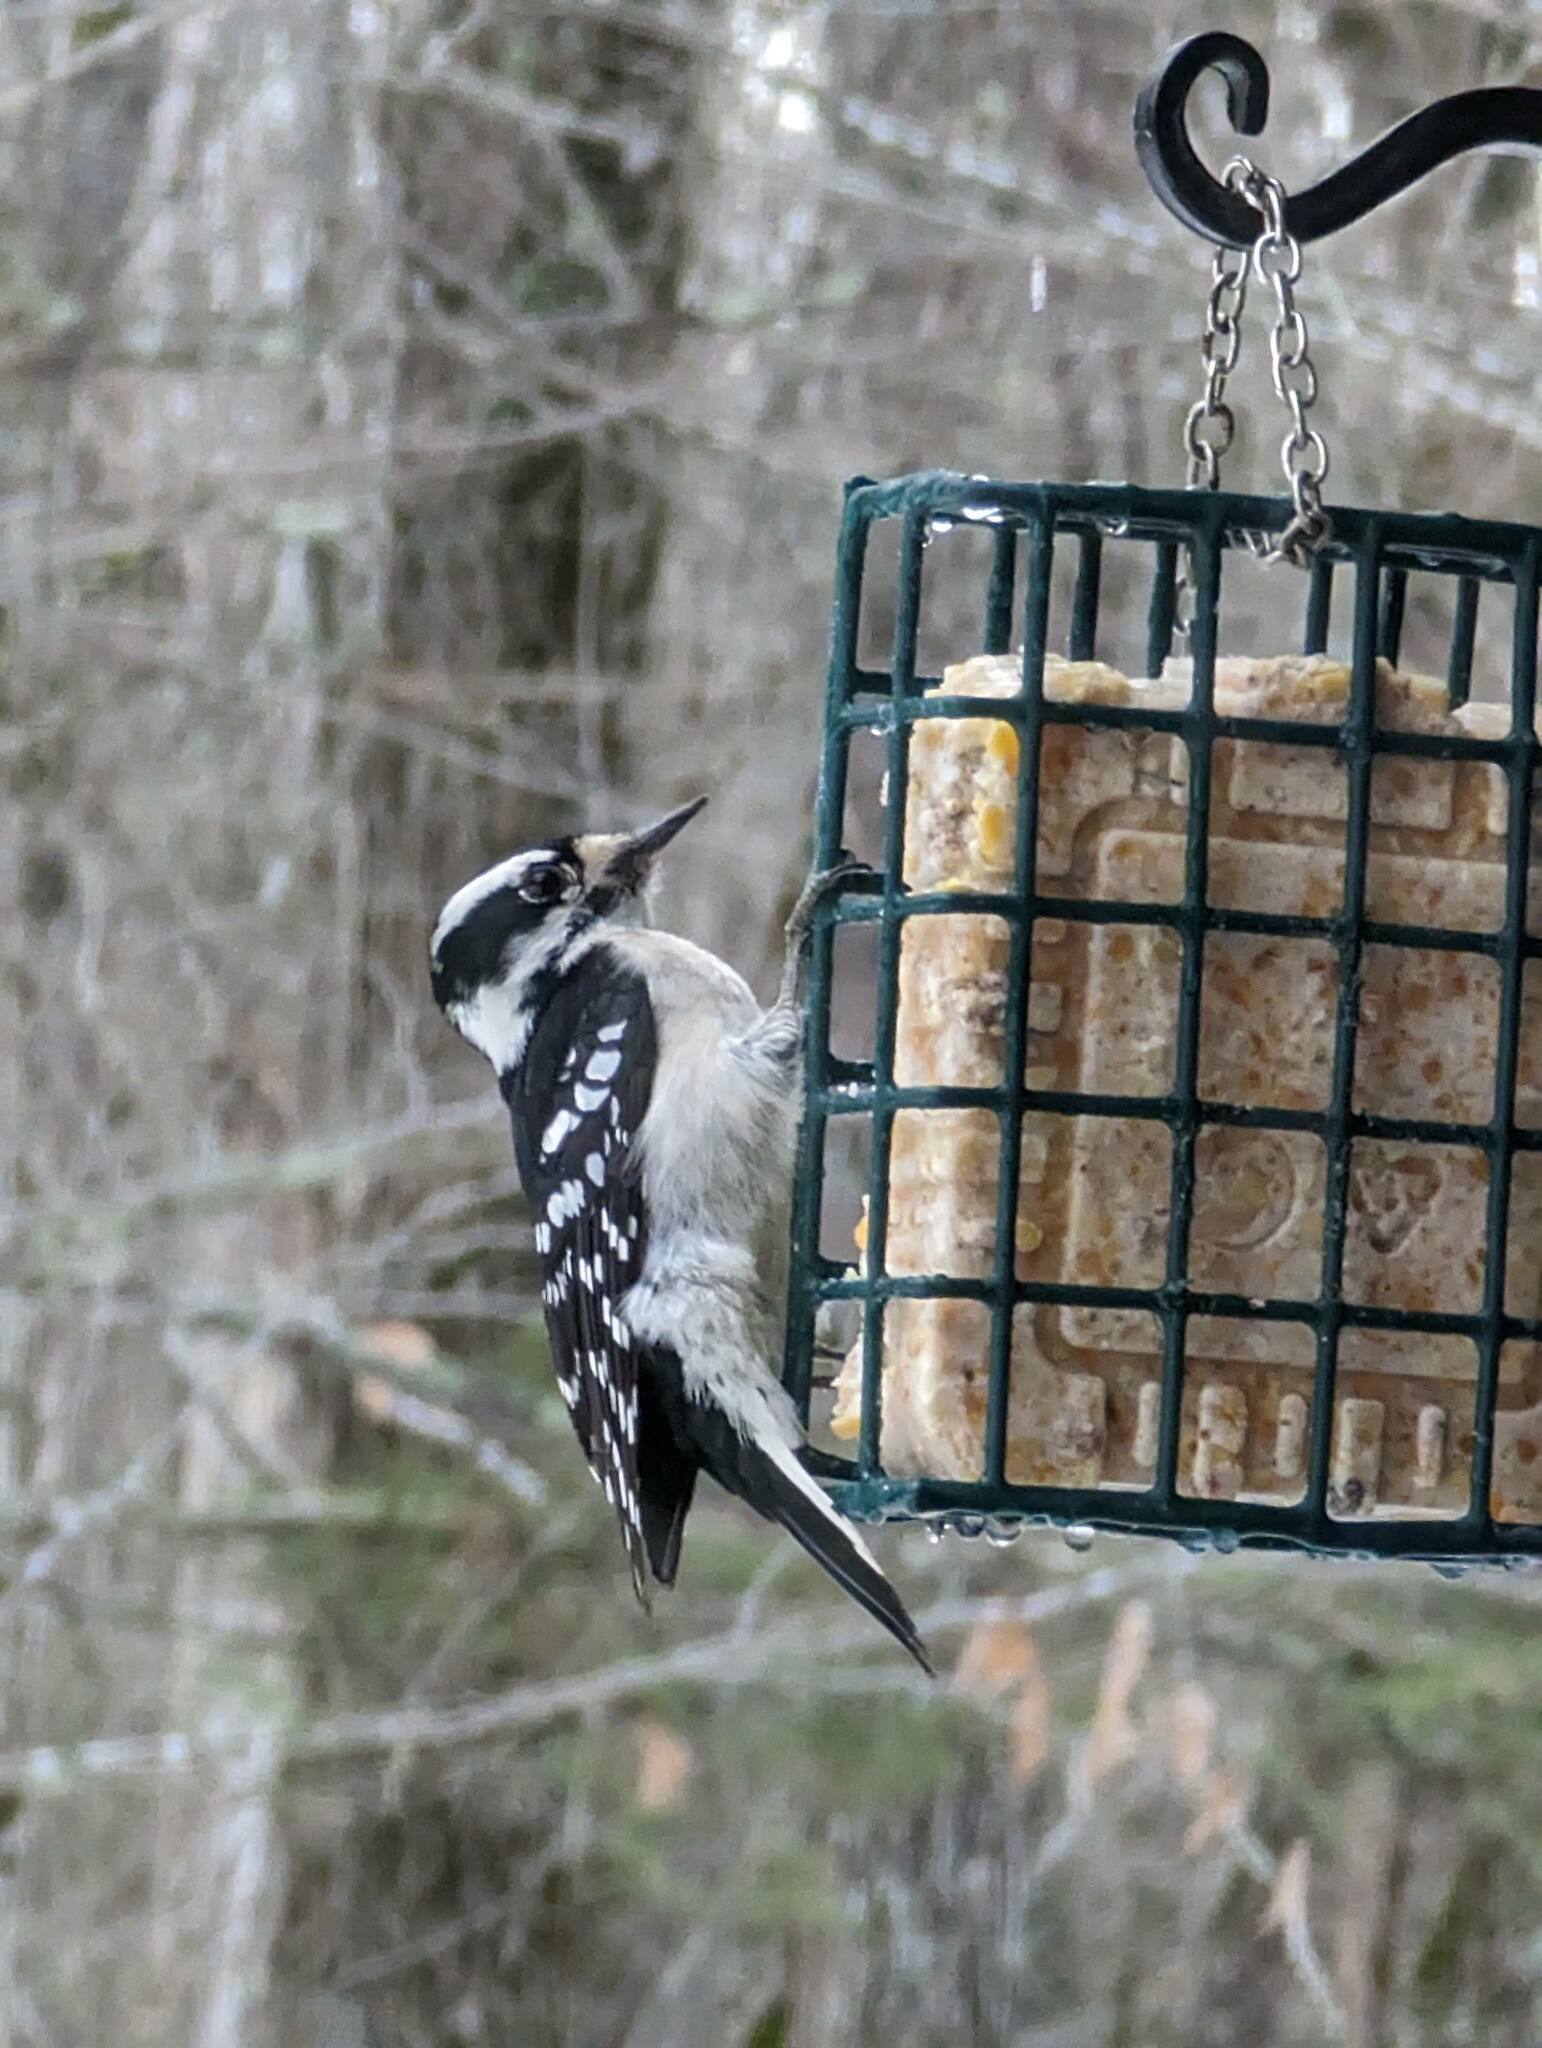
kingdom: Animalia
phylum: Chordata
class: Aves
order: Piciformes
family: Picidae
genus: Dryobates
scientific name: Dryobates pubescens
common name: Downy woodpecker
